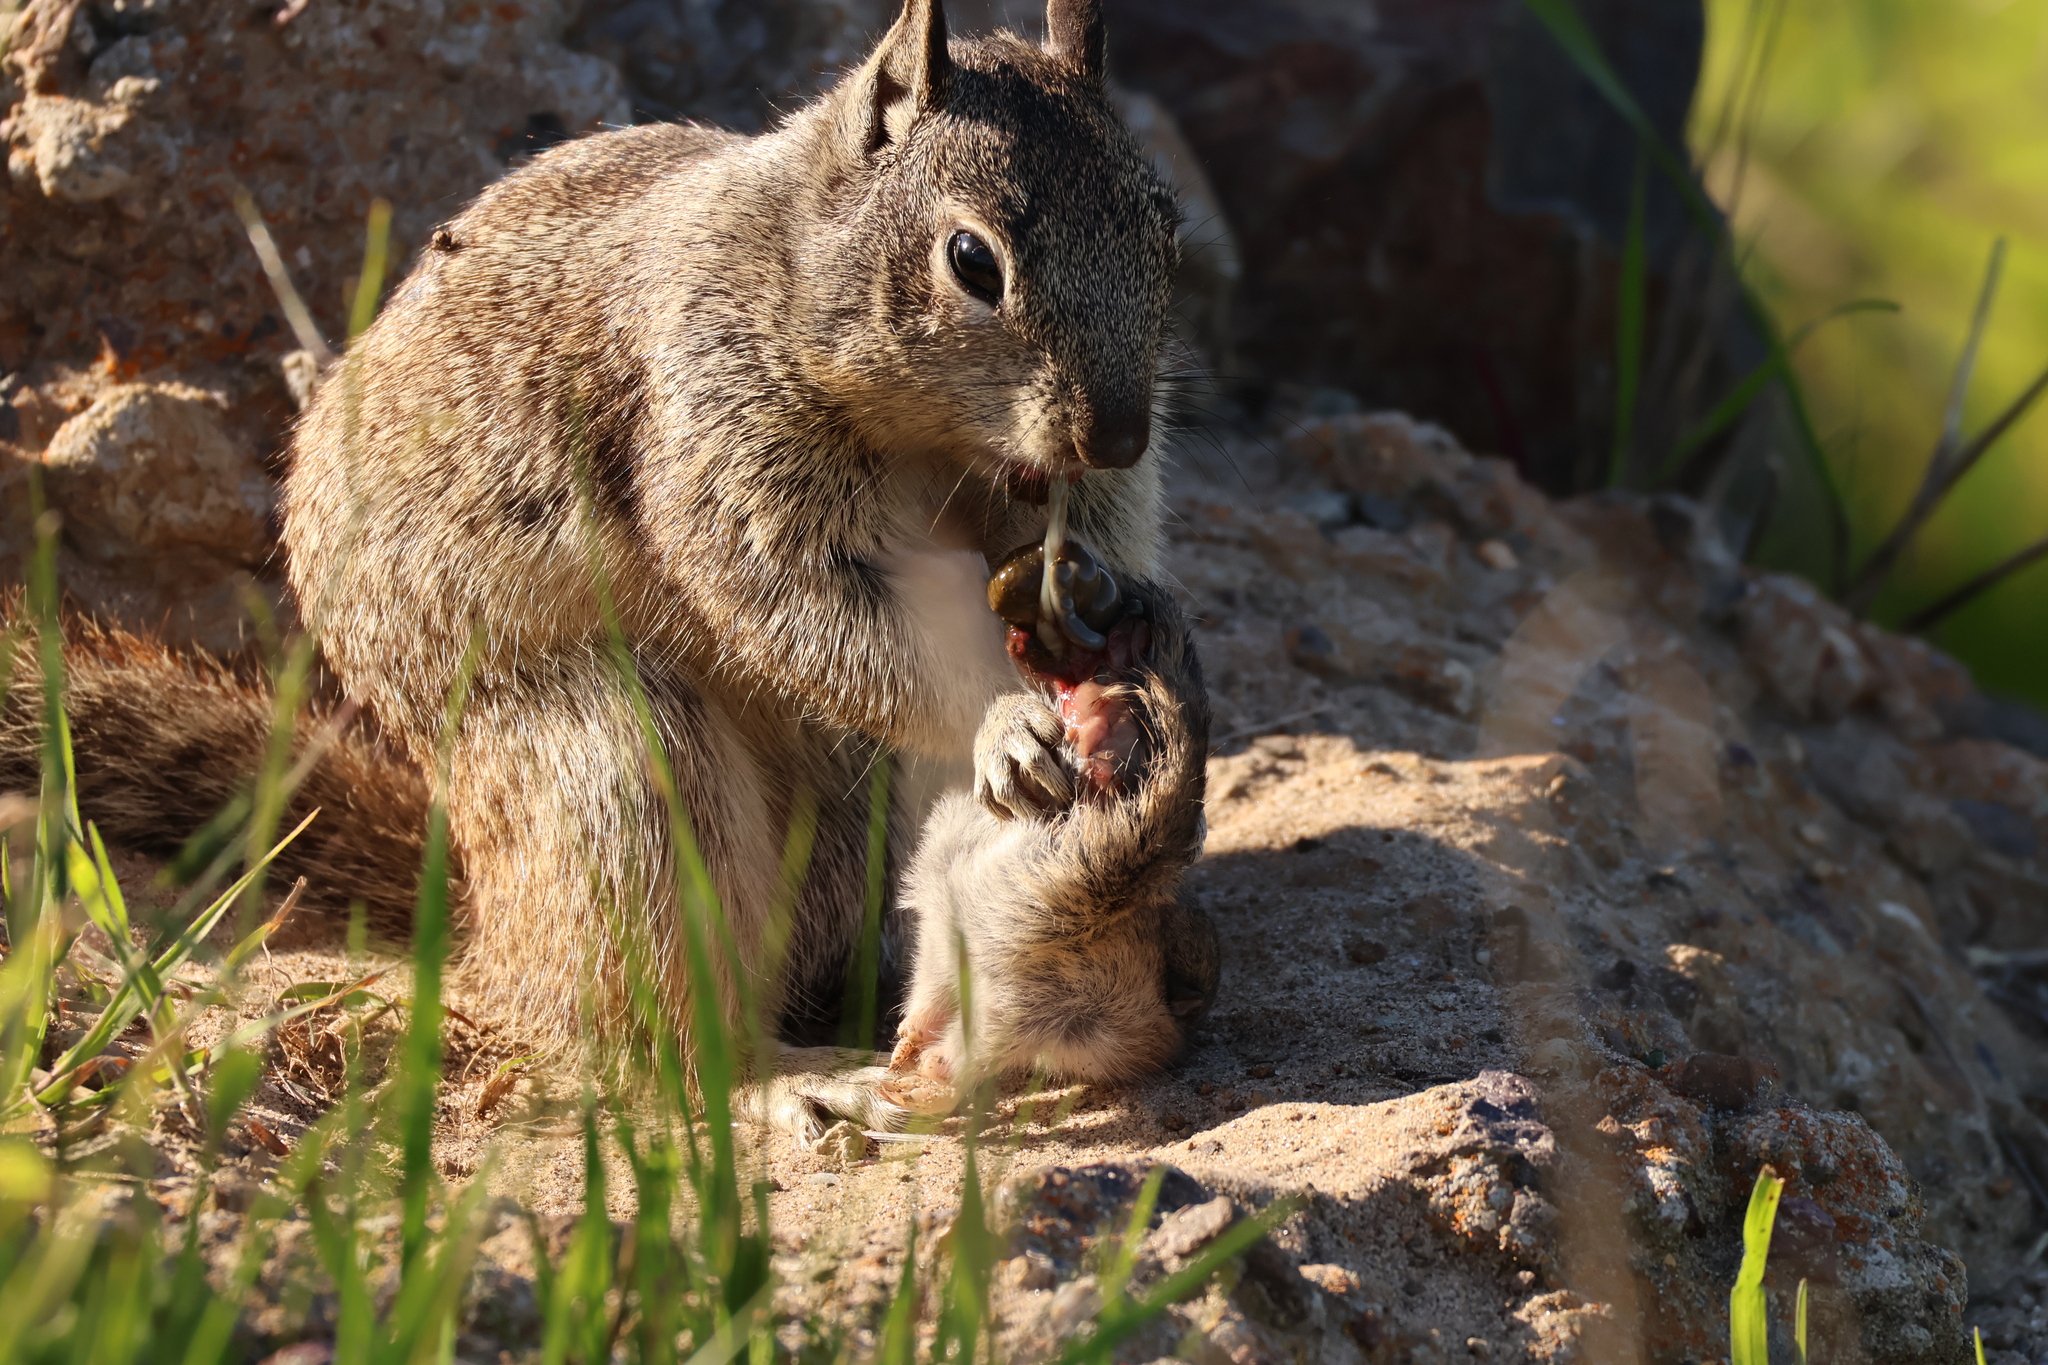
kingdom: Animalia
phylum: Chordata
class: Mammalia
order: Rodentia
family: Sciuridae
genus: Otospermophilus
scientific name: Otospermophilus beecheyi
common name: California ground squirrel
